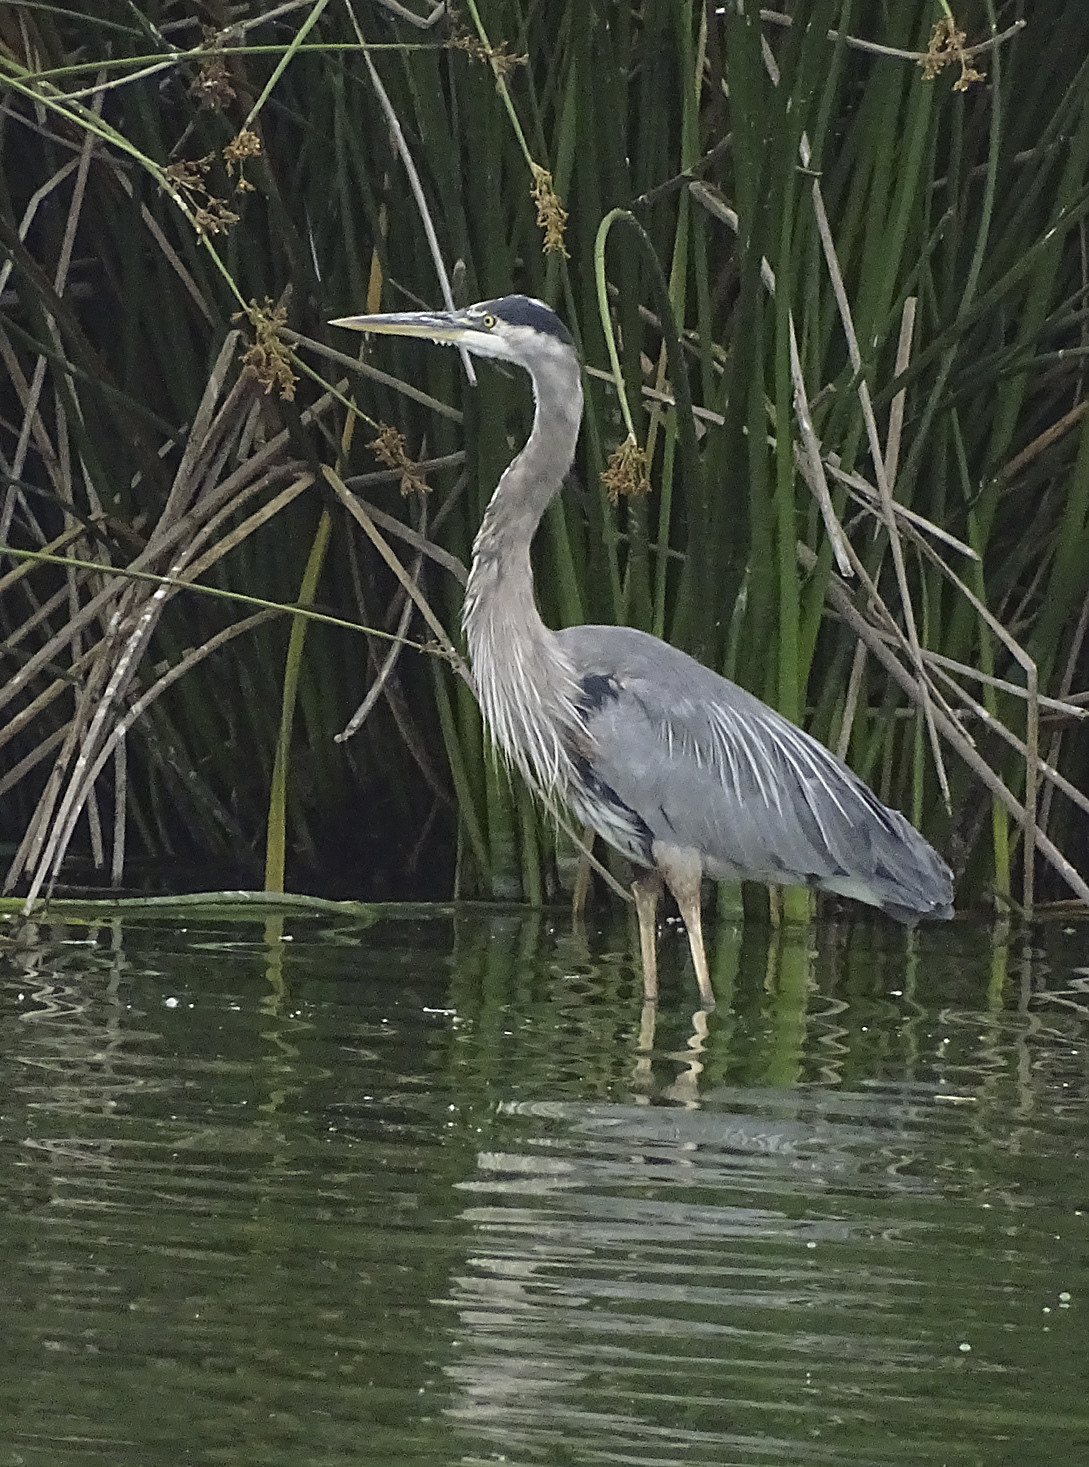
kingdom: Animalia
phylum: Chordata
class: Aves
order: Pelecaniformes
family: Ardeidae
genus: Ardea
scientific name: Ardea herodias
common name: Great blue heron
